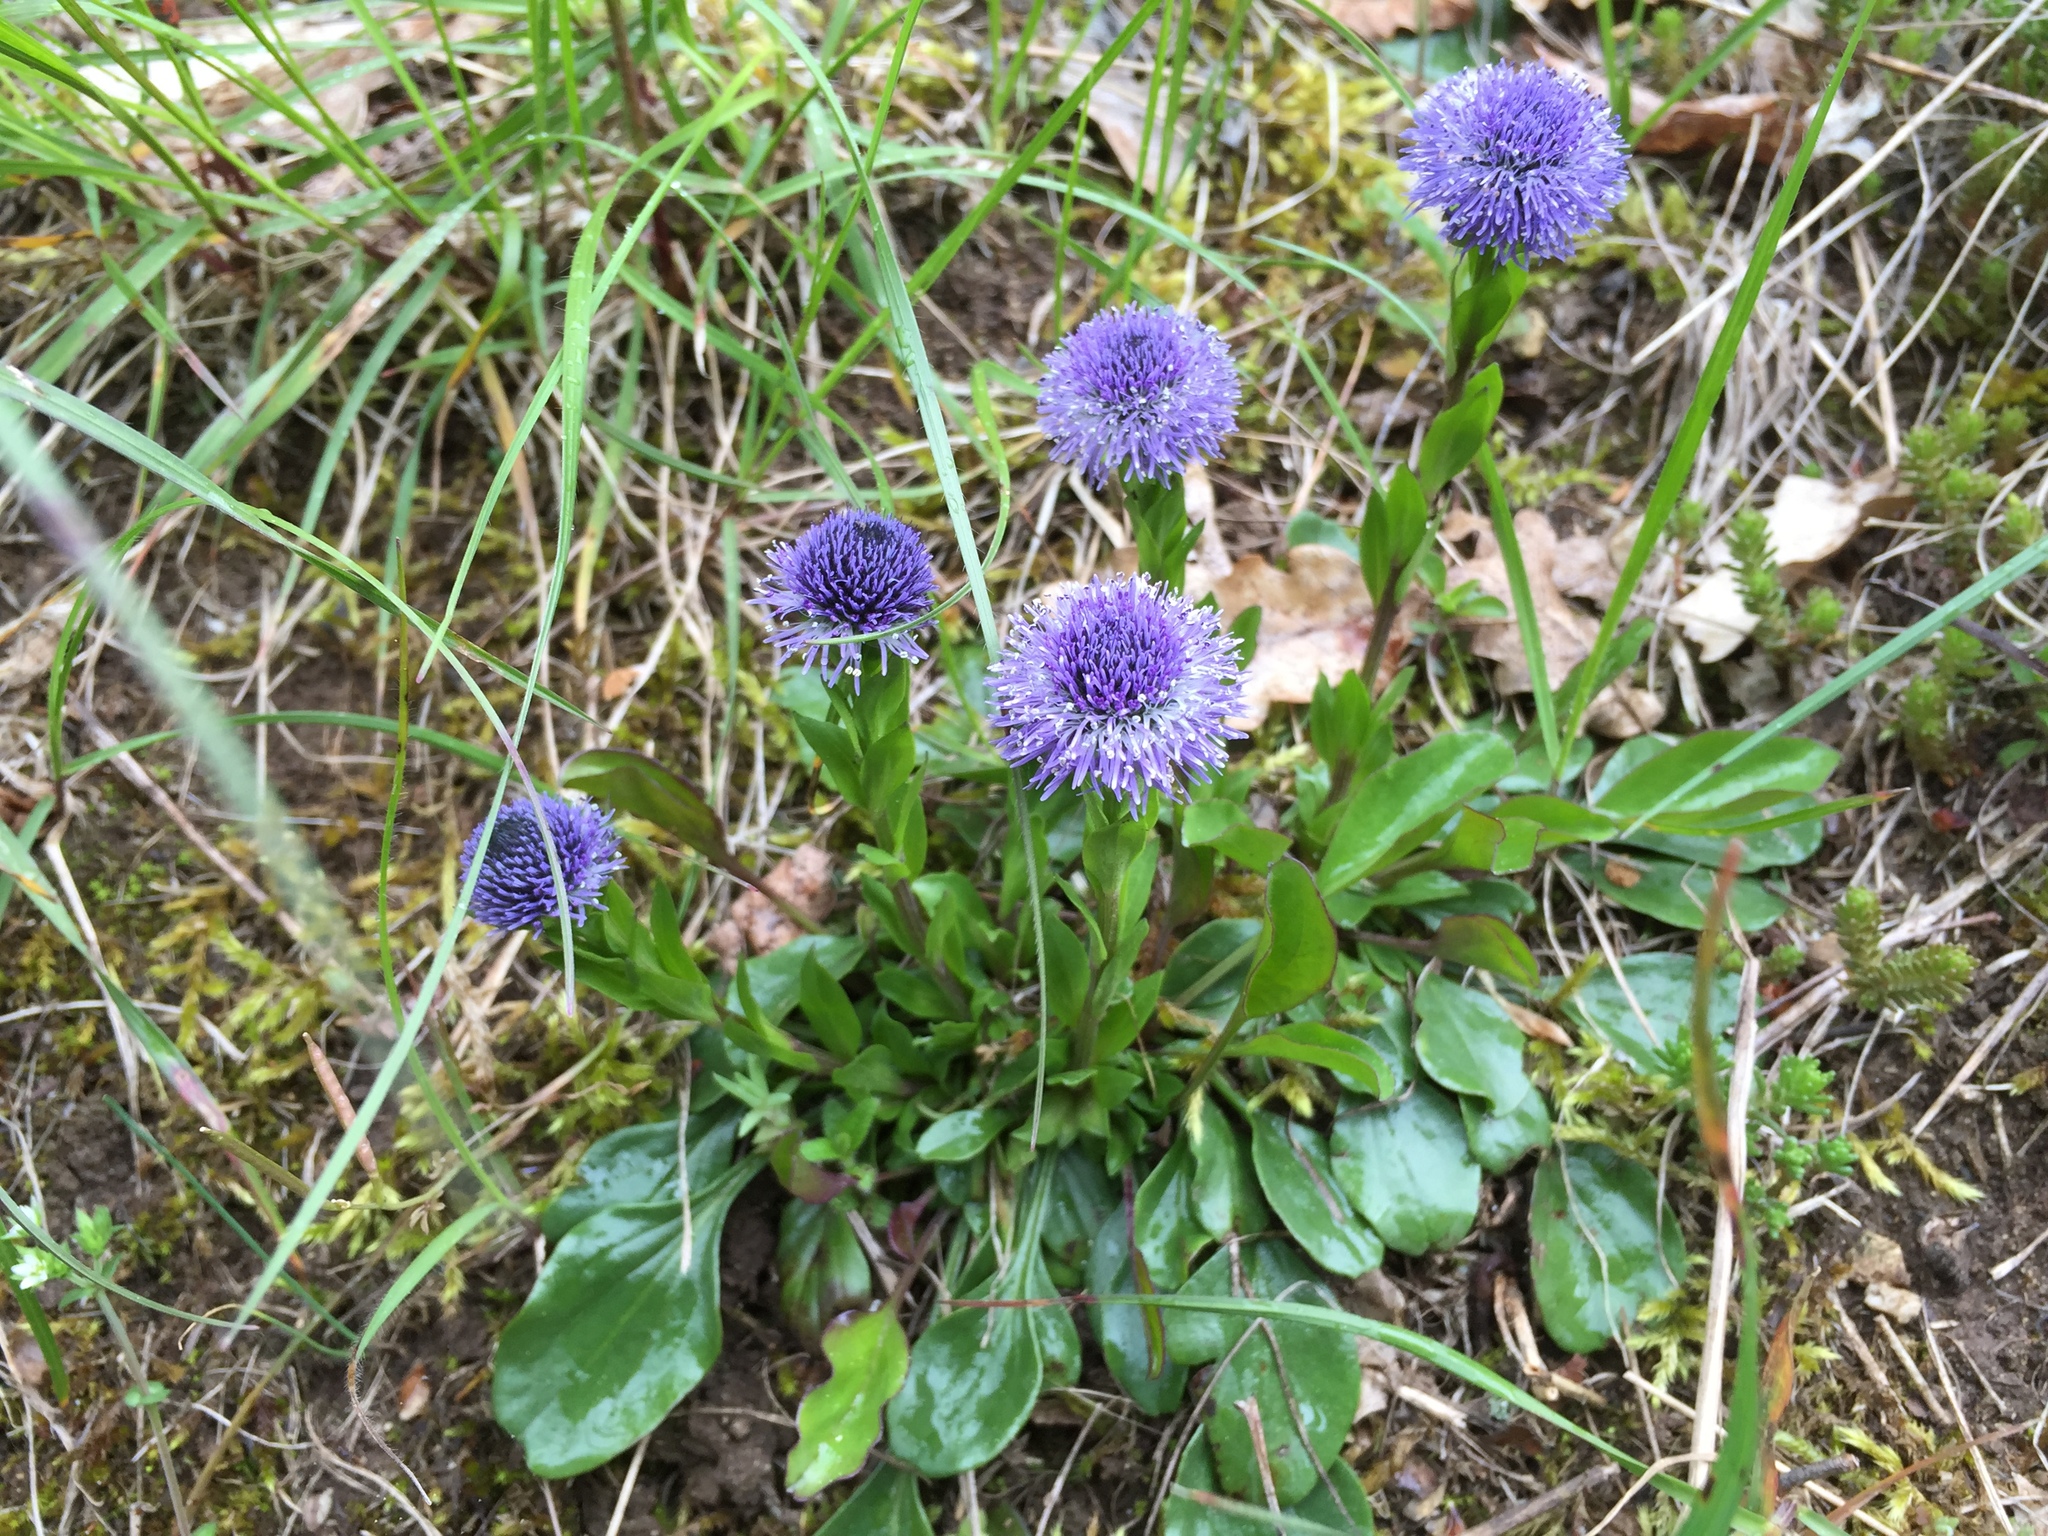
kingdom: Plantae
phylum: Tracheophyta
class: Magnoliopsida
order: Lamiales
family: Plantaginaceae
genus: Globularia
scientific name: Globularia bisnagarica
